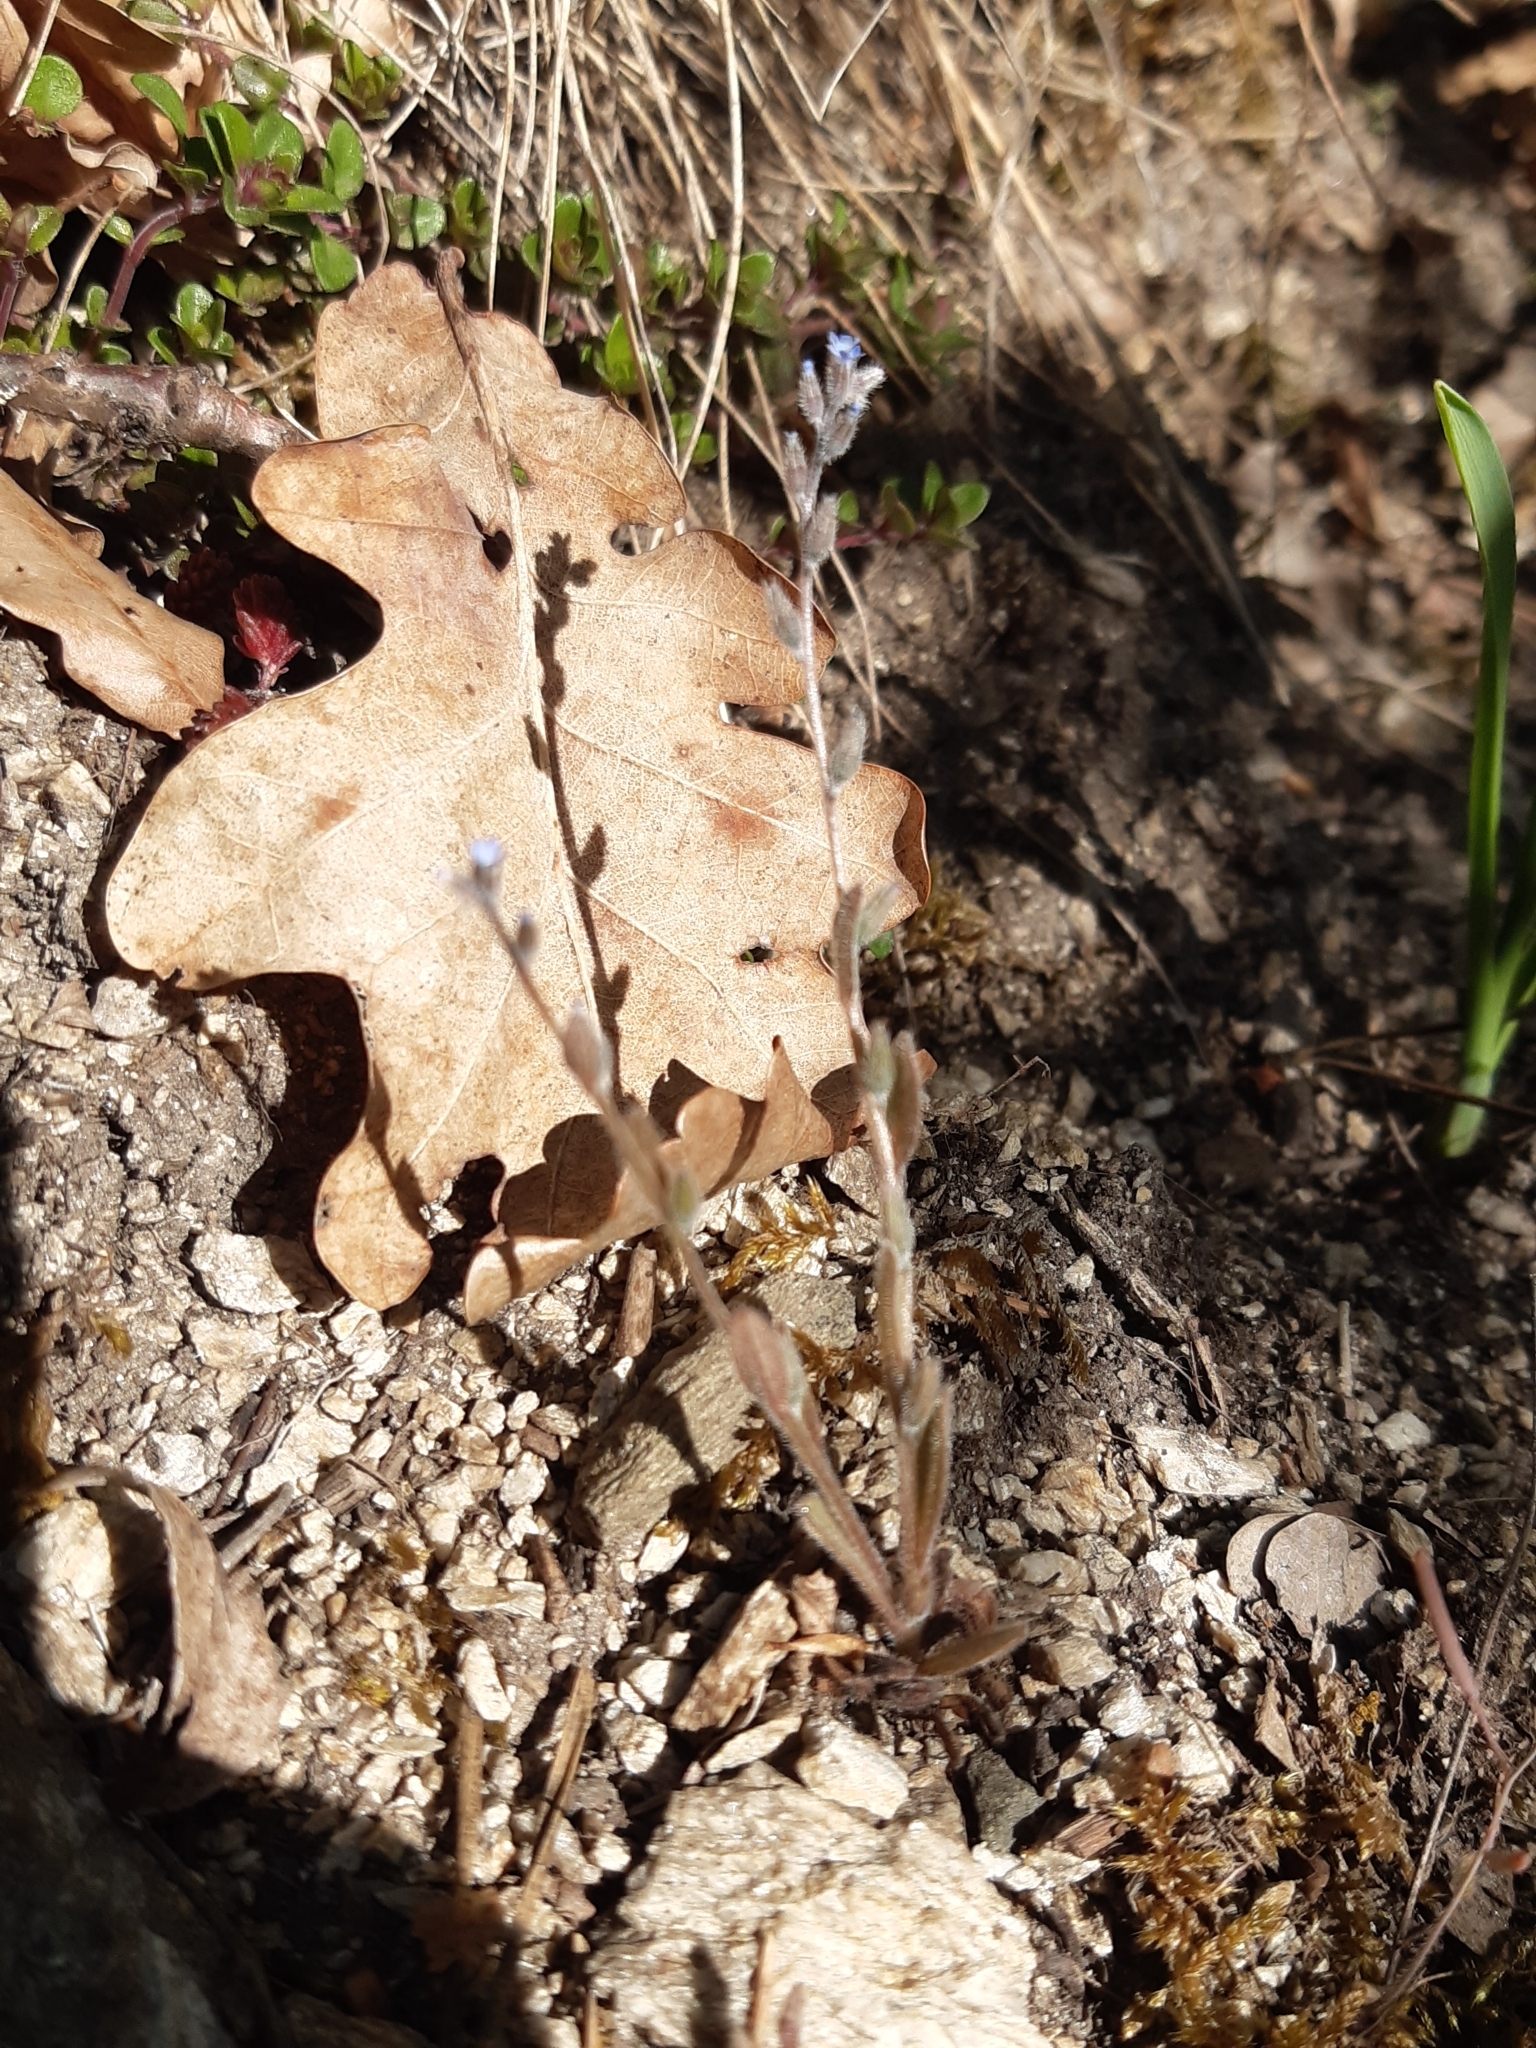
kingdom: Plantae
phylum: Tracheophyta
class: Magnoliopsida
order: Boraginales
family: Boraginaceae
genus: Myosotis
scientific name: Myosotis stricta
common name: Strict forget-me-not
